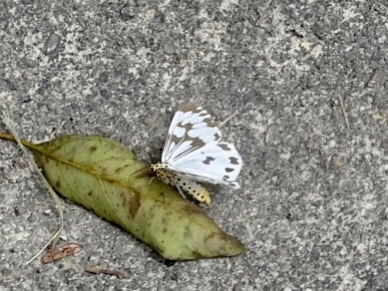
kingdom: Animalia
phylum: Arthropoda
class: Insecta
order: Lepidoptera
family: Erebidae
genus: Nyctemera
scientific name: Nyctemera adversata
